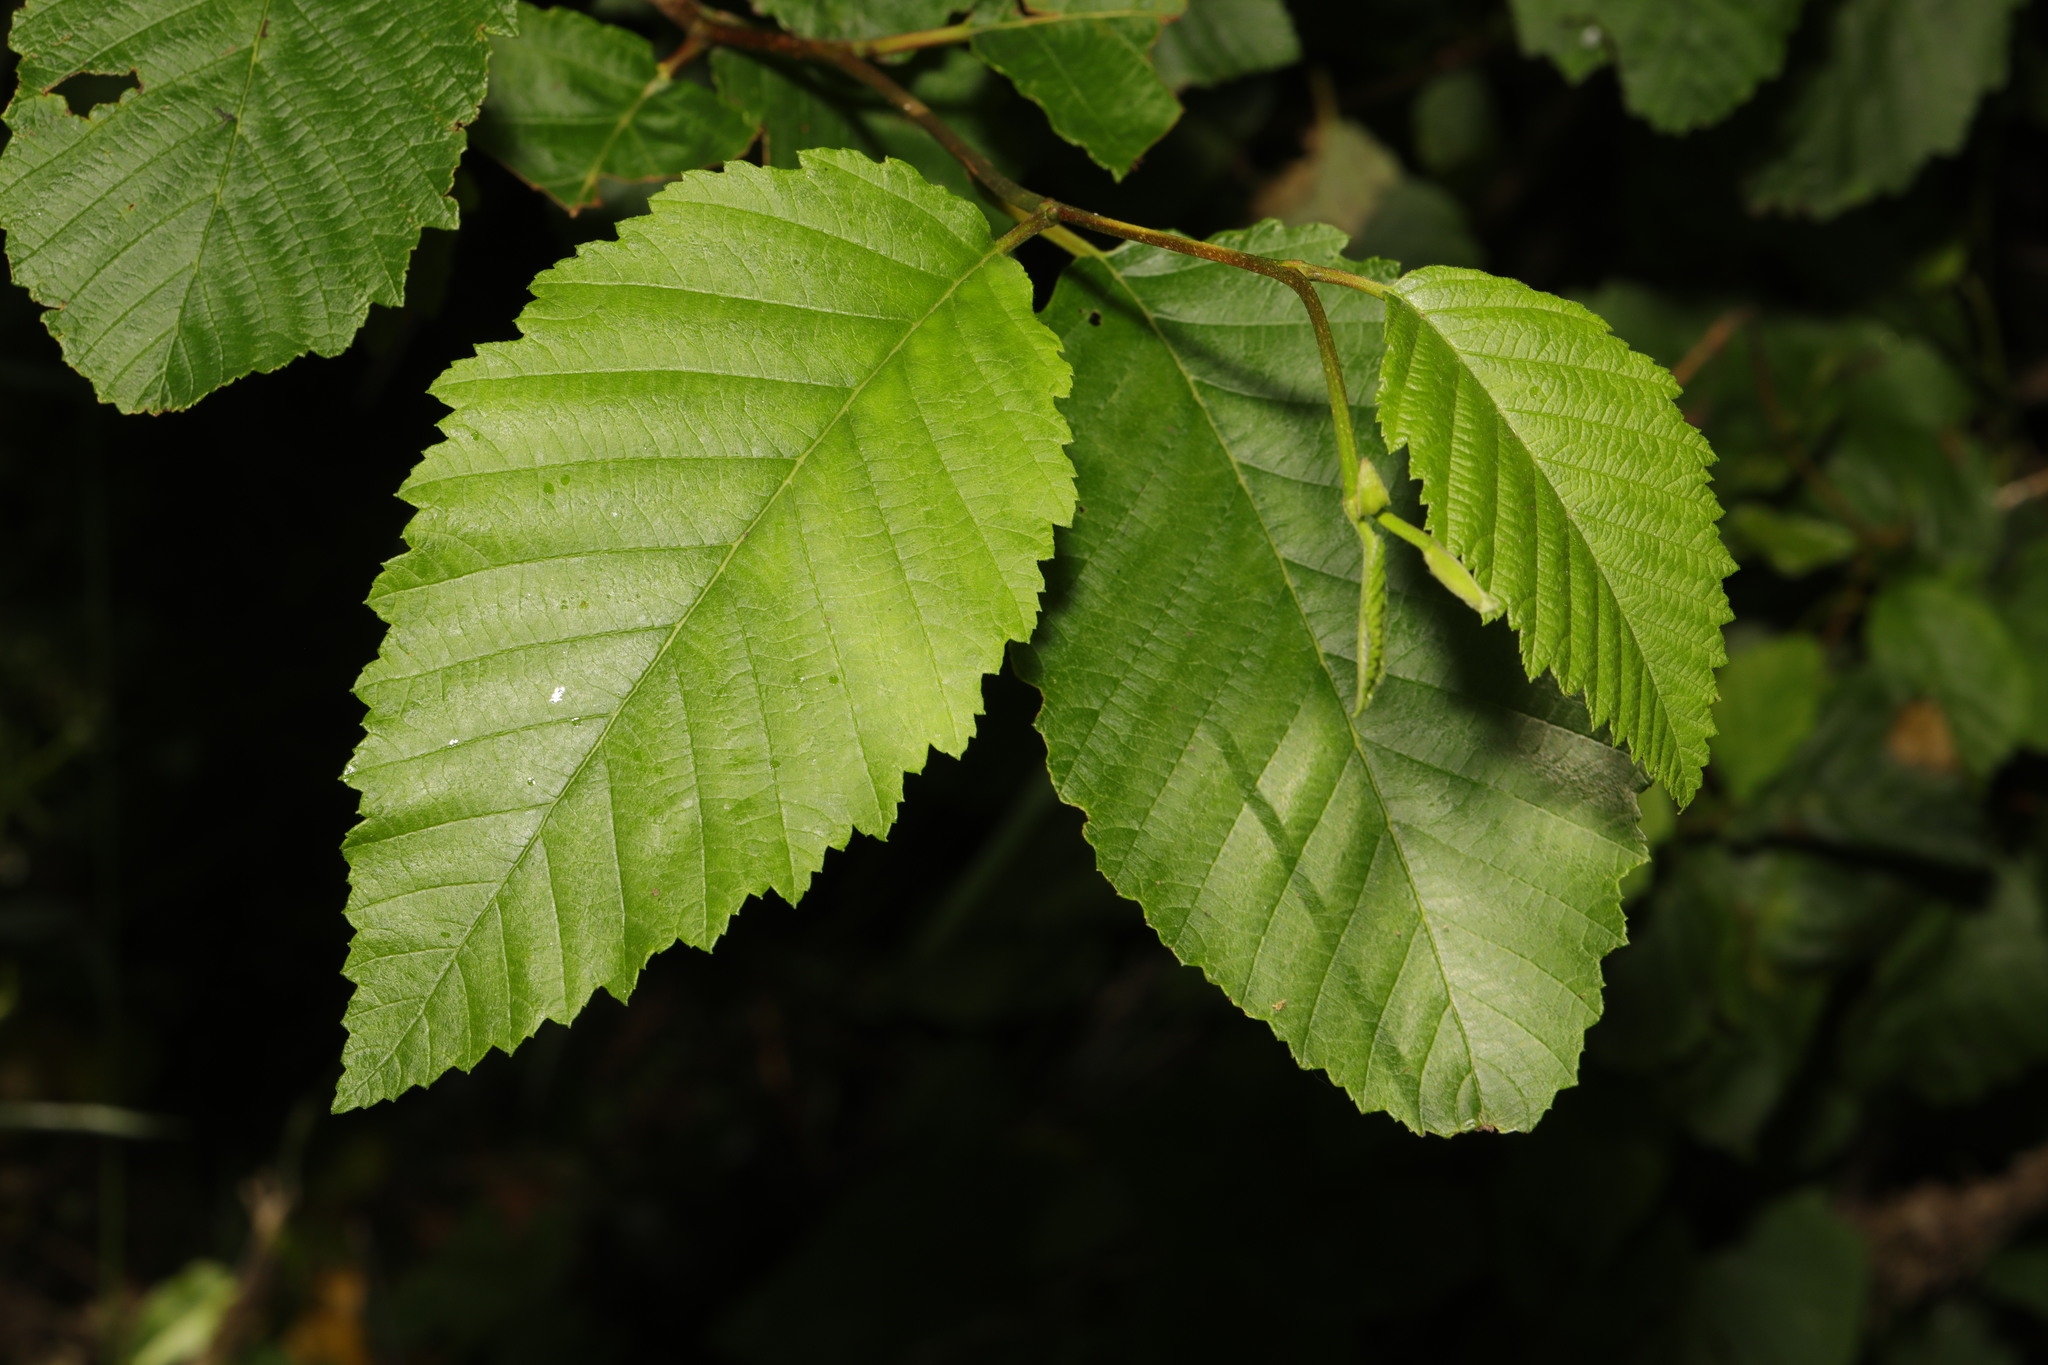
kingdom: Plantae
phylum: Tracheophyta
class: Magnoliopsida
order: Fagales
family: Betulaceae
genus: Alnus
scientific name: Alnus incana
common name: Grey alder
